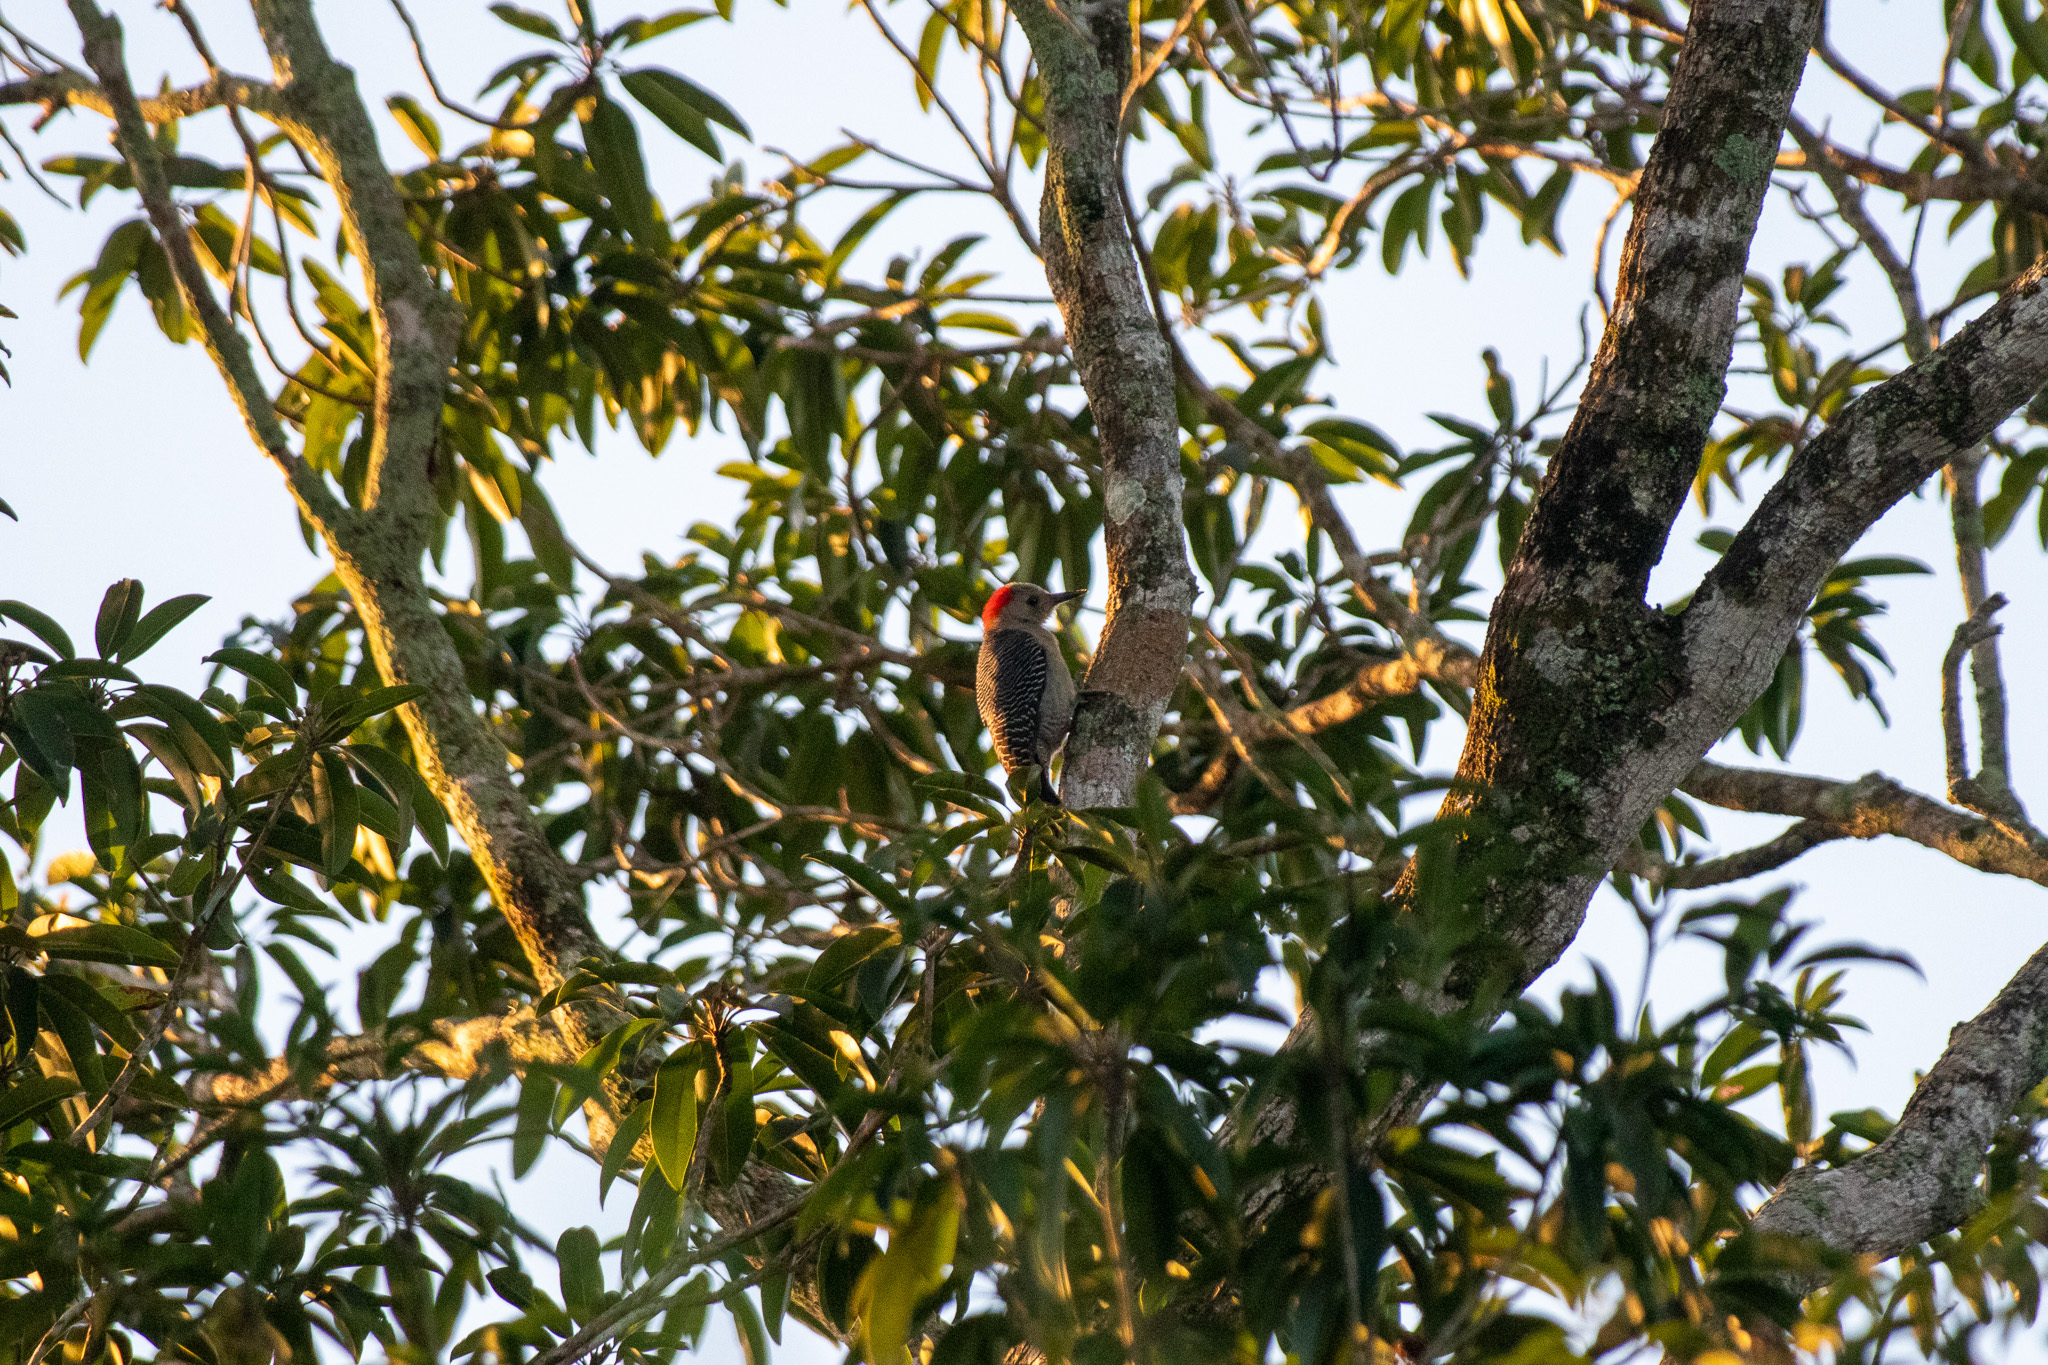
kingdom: Animalia
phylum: Chordata
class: Aves
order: Piciformes
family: Picidae
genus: Melanerpes
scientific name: Melanerpes pygmaeus
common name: Yucatan woodpecker
